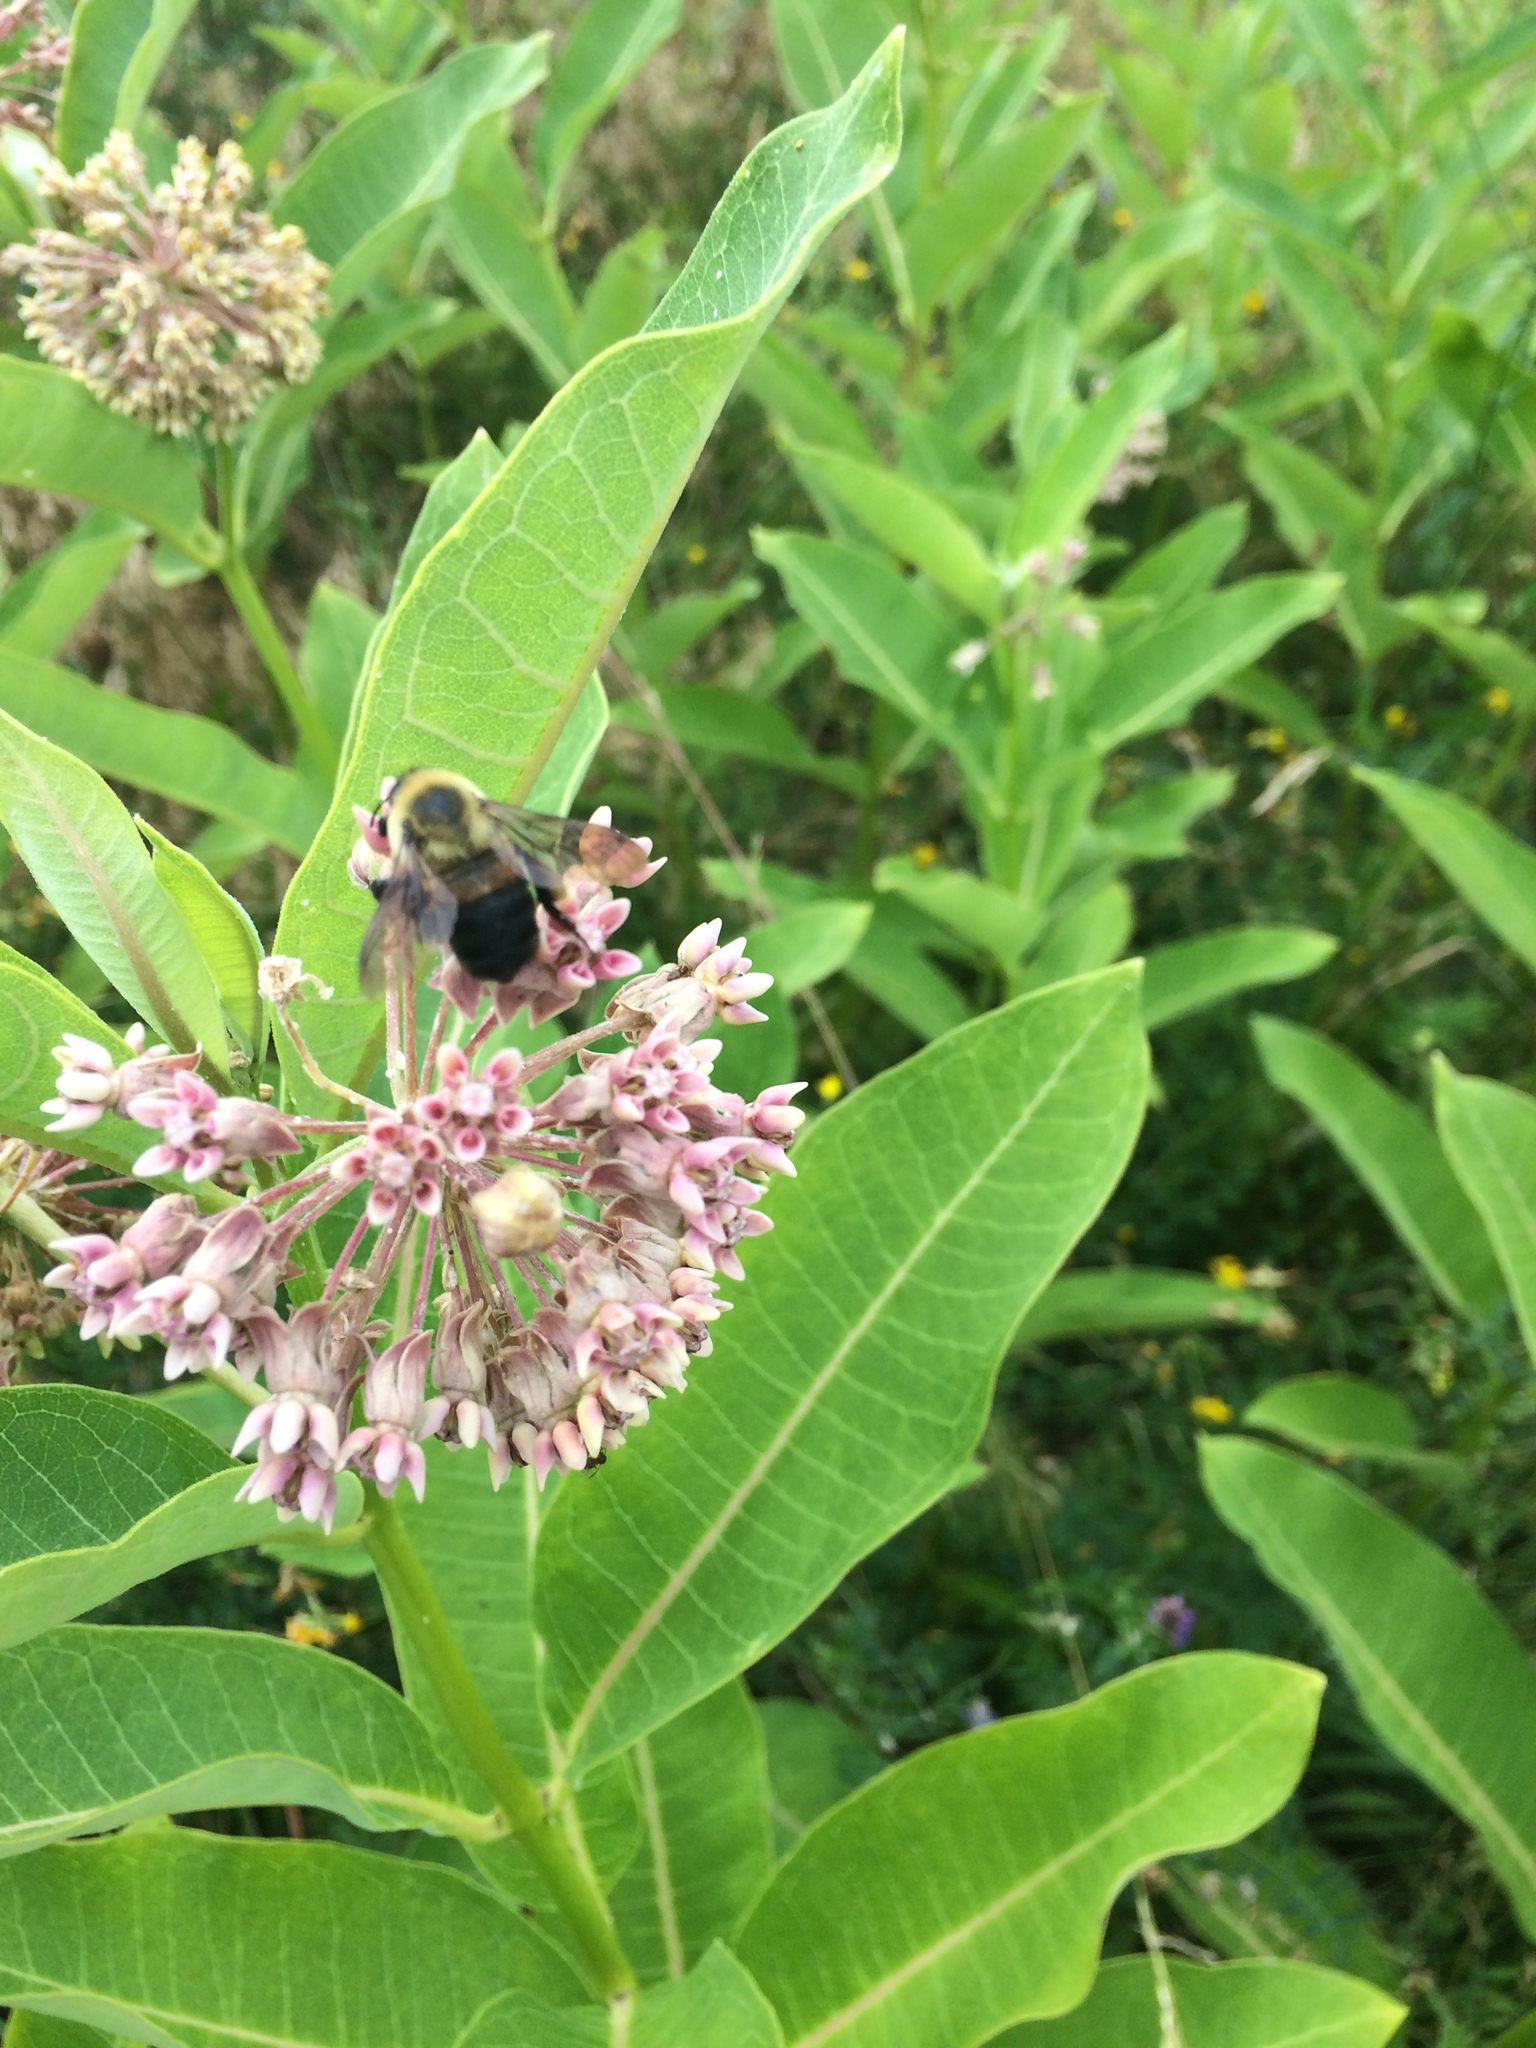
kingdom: Animalia
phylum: Arthropoda
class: Insecta
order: Hymenoptera
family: Apidae
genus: Bombus
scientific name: Bombus griseocollis
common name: Brown-belted bumble bee
